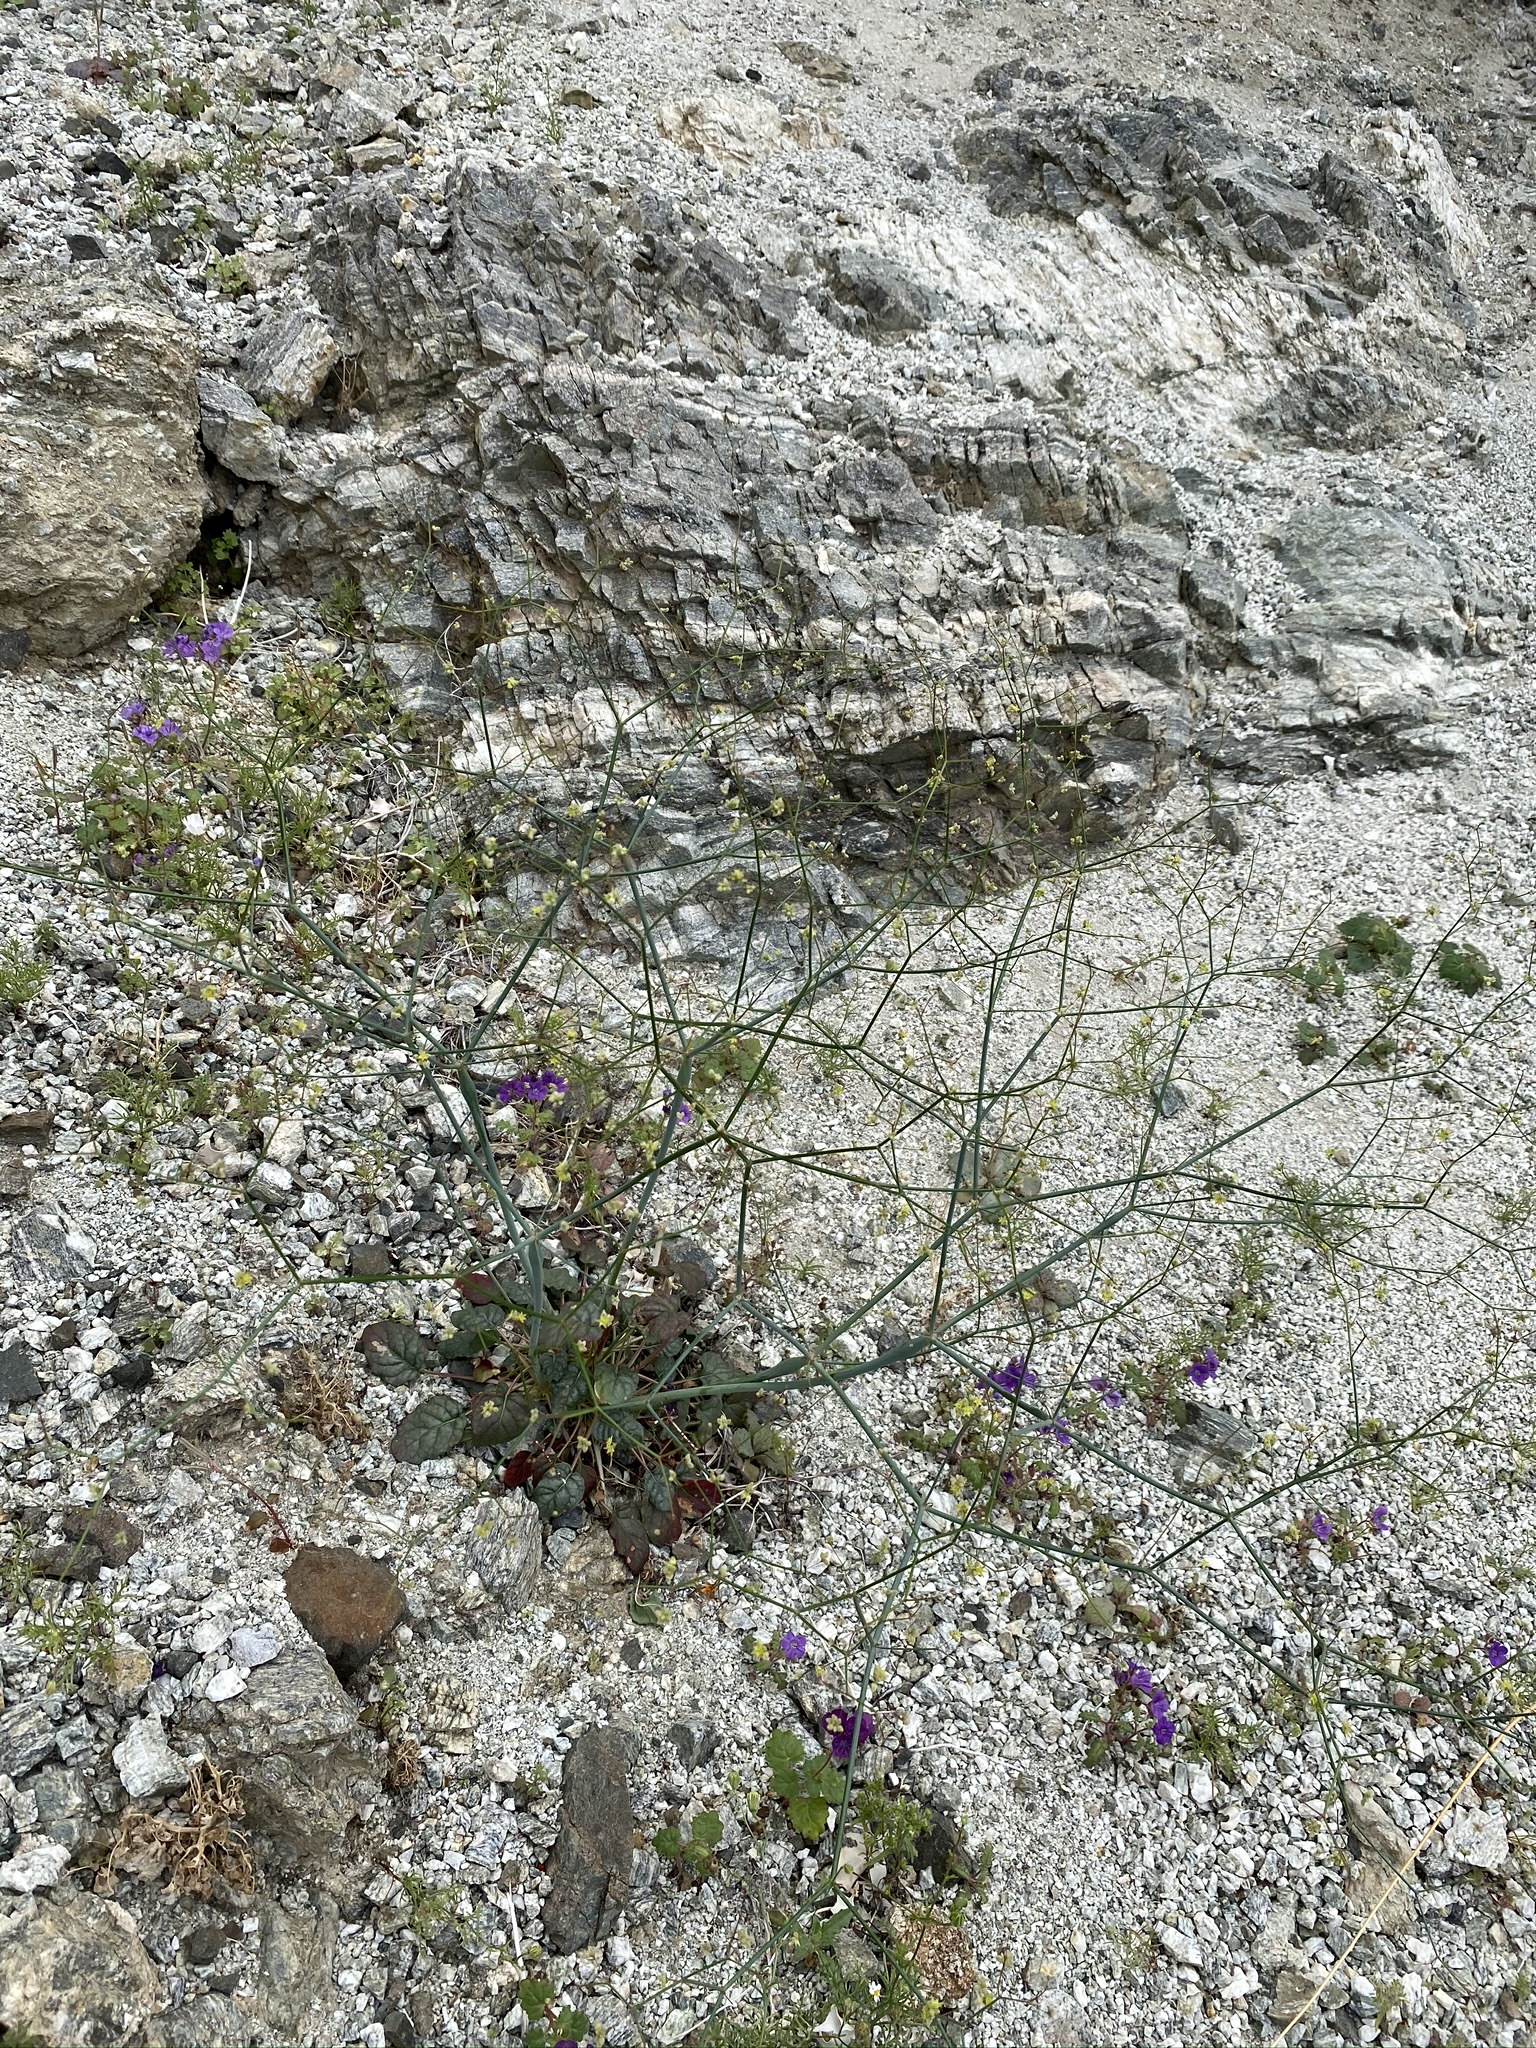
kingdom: Plantae
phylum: Tracheophyta
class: Magnoliopsida
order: Caryophyllales
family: Polygonaceae
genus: Eriogonum
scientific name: Eriogonum inflatum
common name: Desert trumpet
